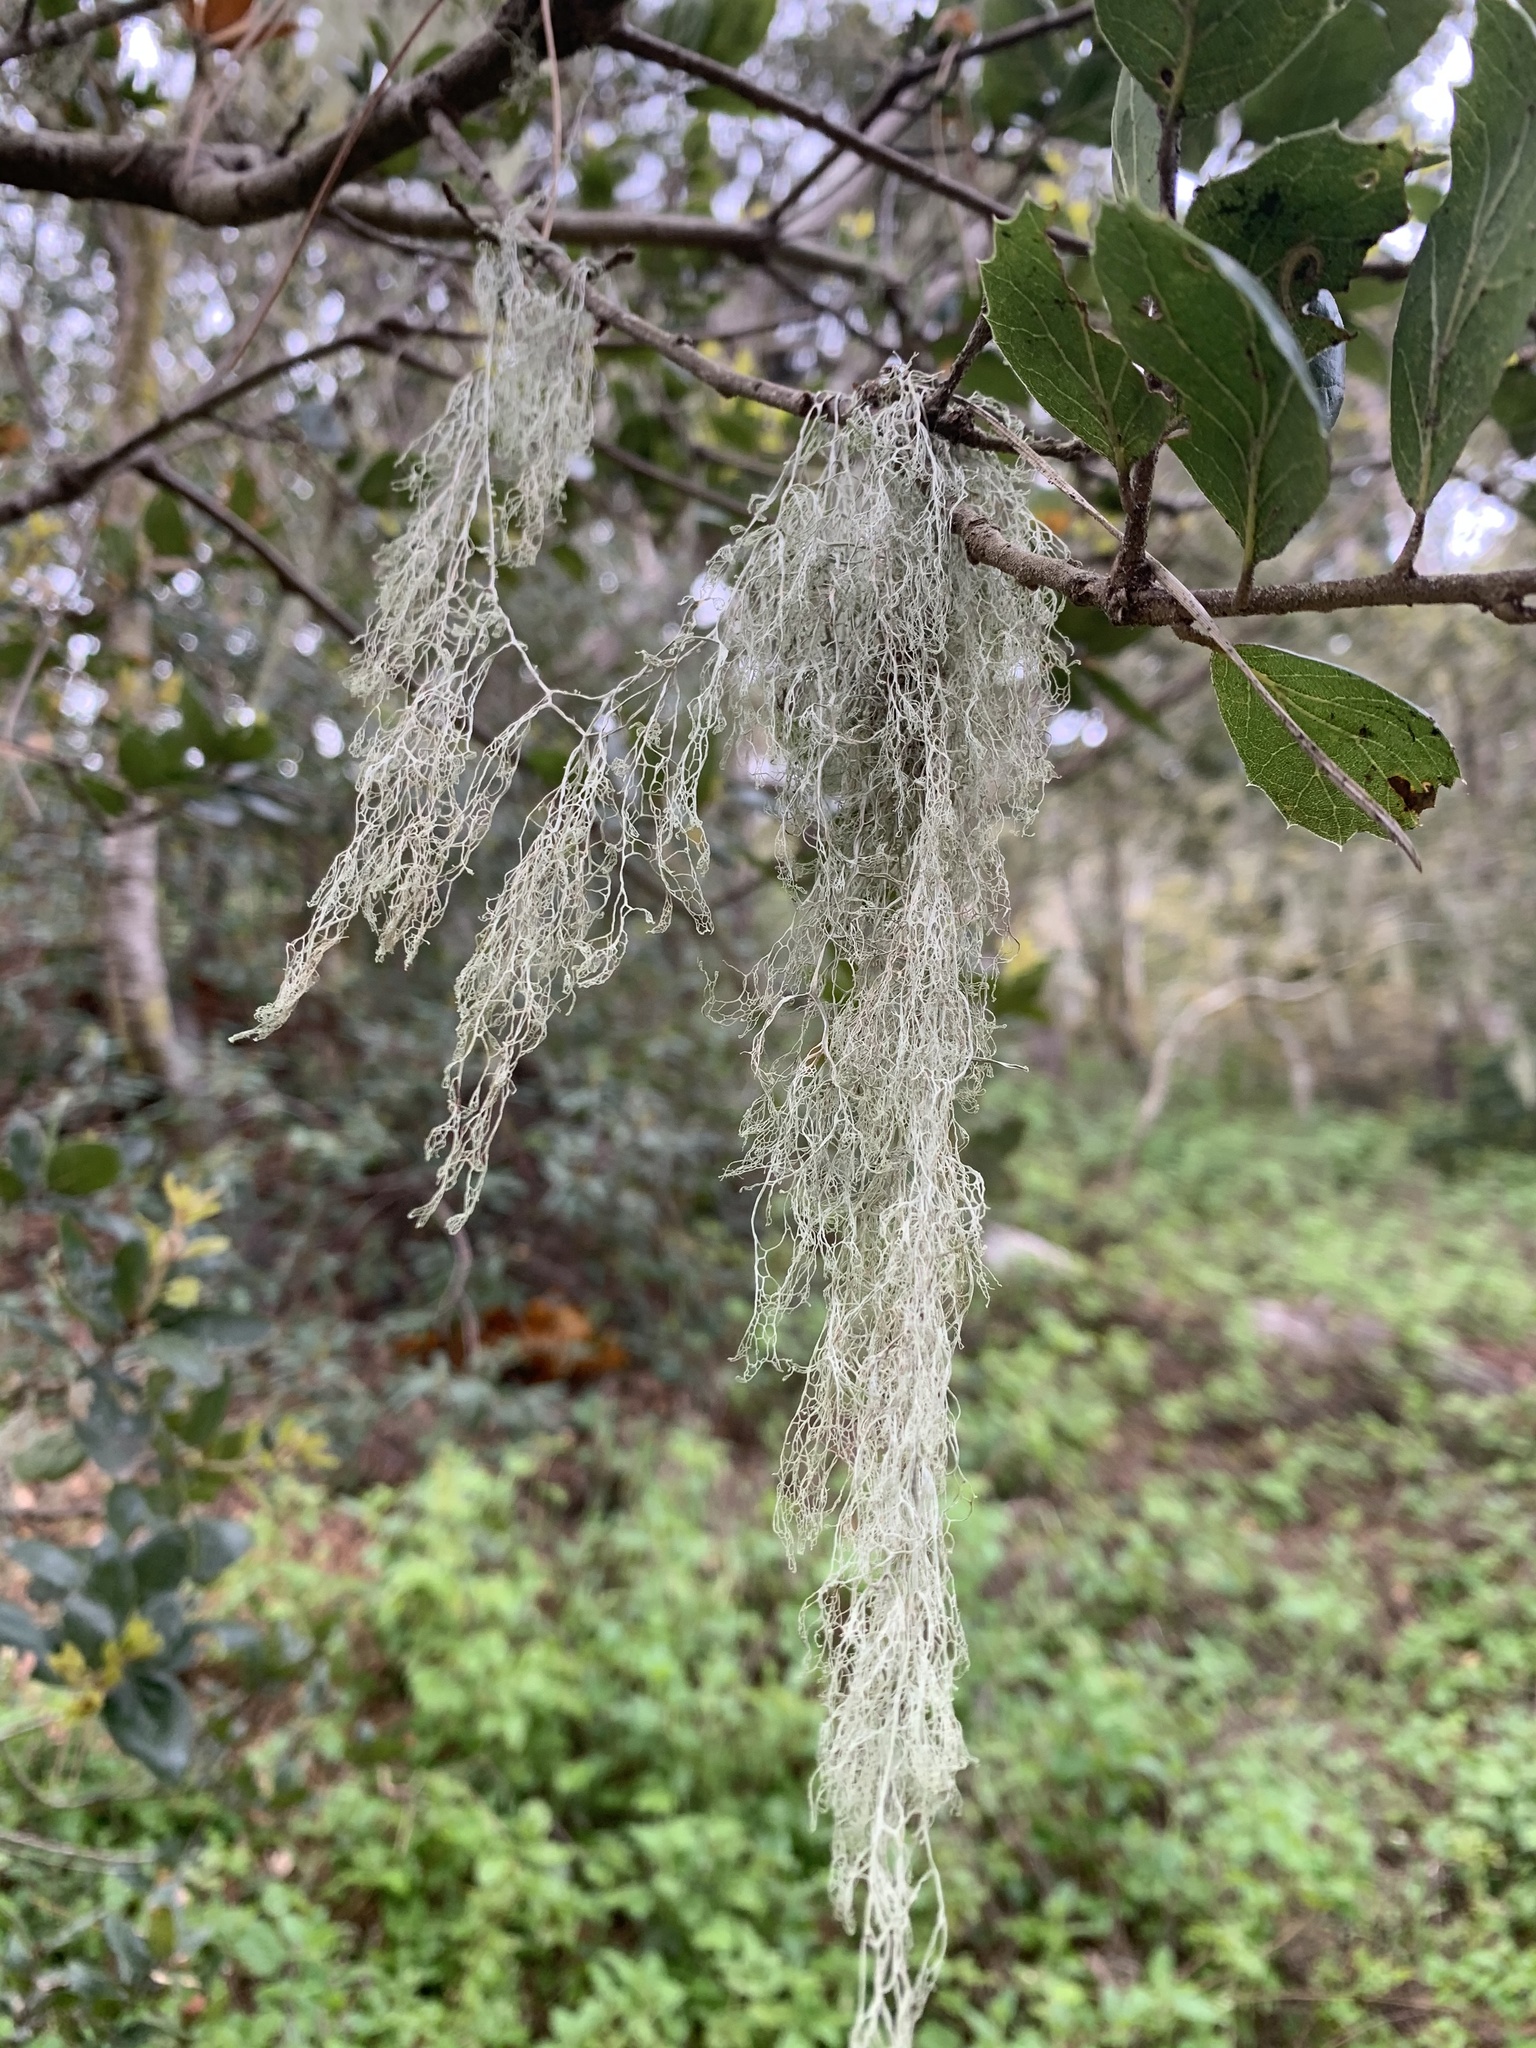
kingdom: Fungi
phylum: Ascomycota
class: Lecanoromycetes
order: Lecanorales
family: Ramalinaceae
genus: Ramalina
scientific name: Ramalina menziesii
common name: Lace lichen
